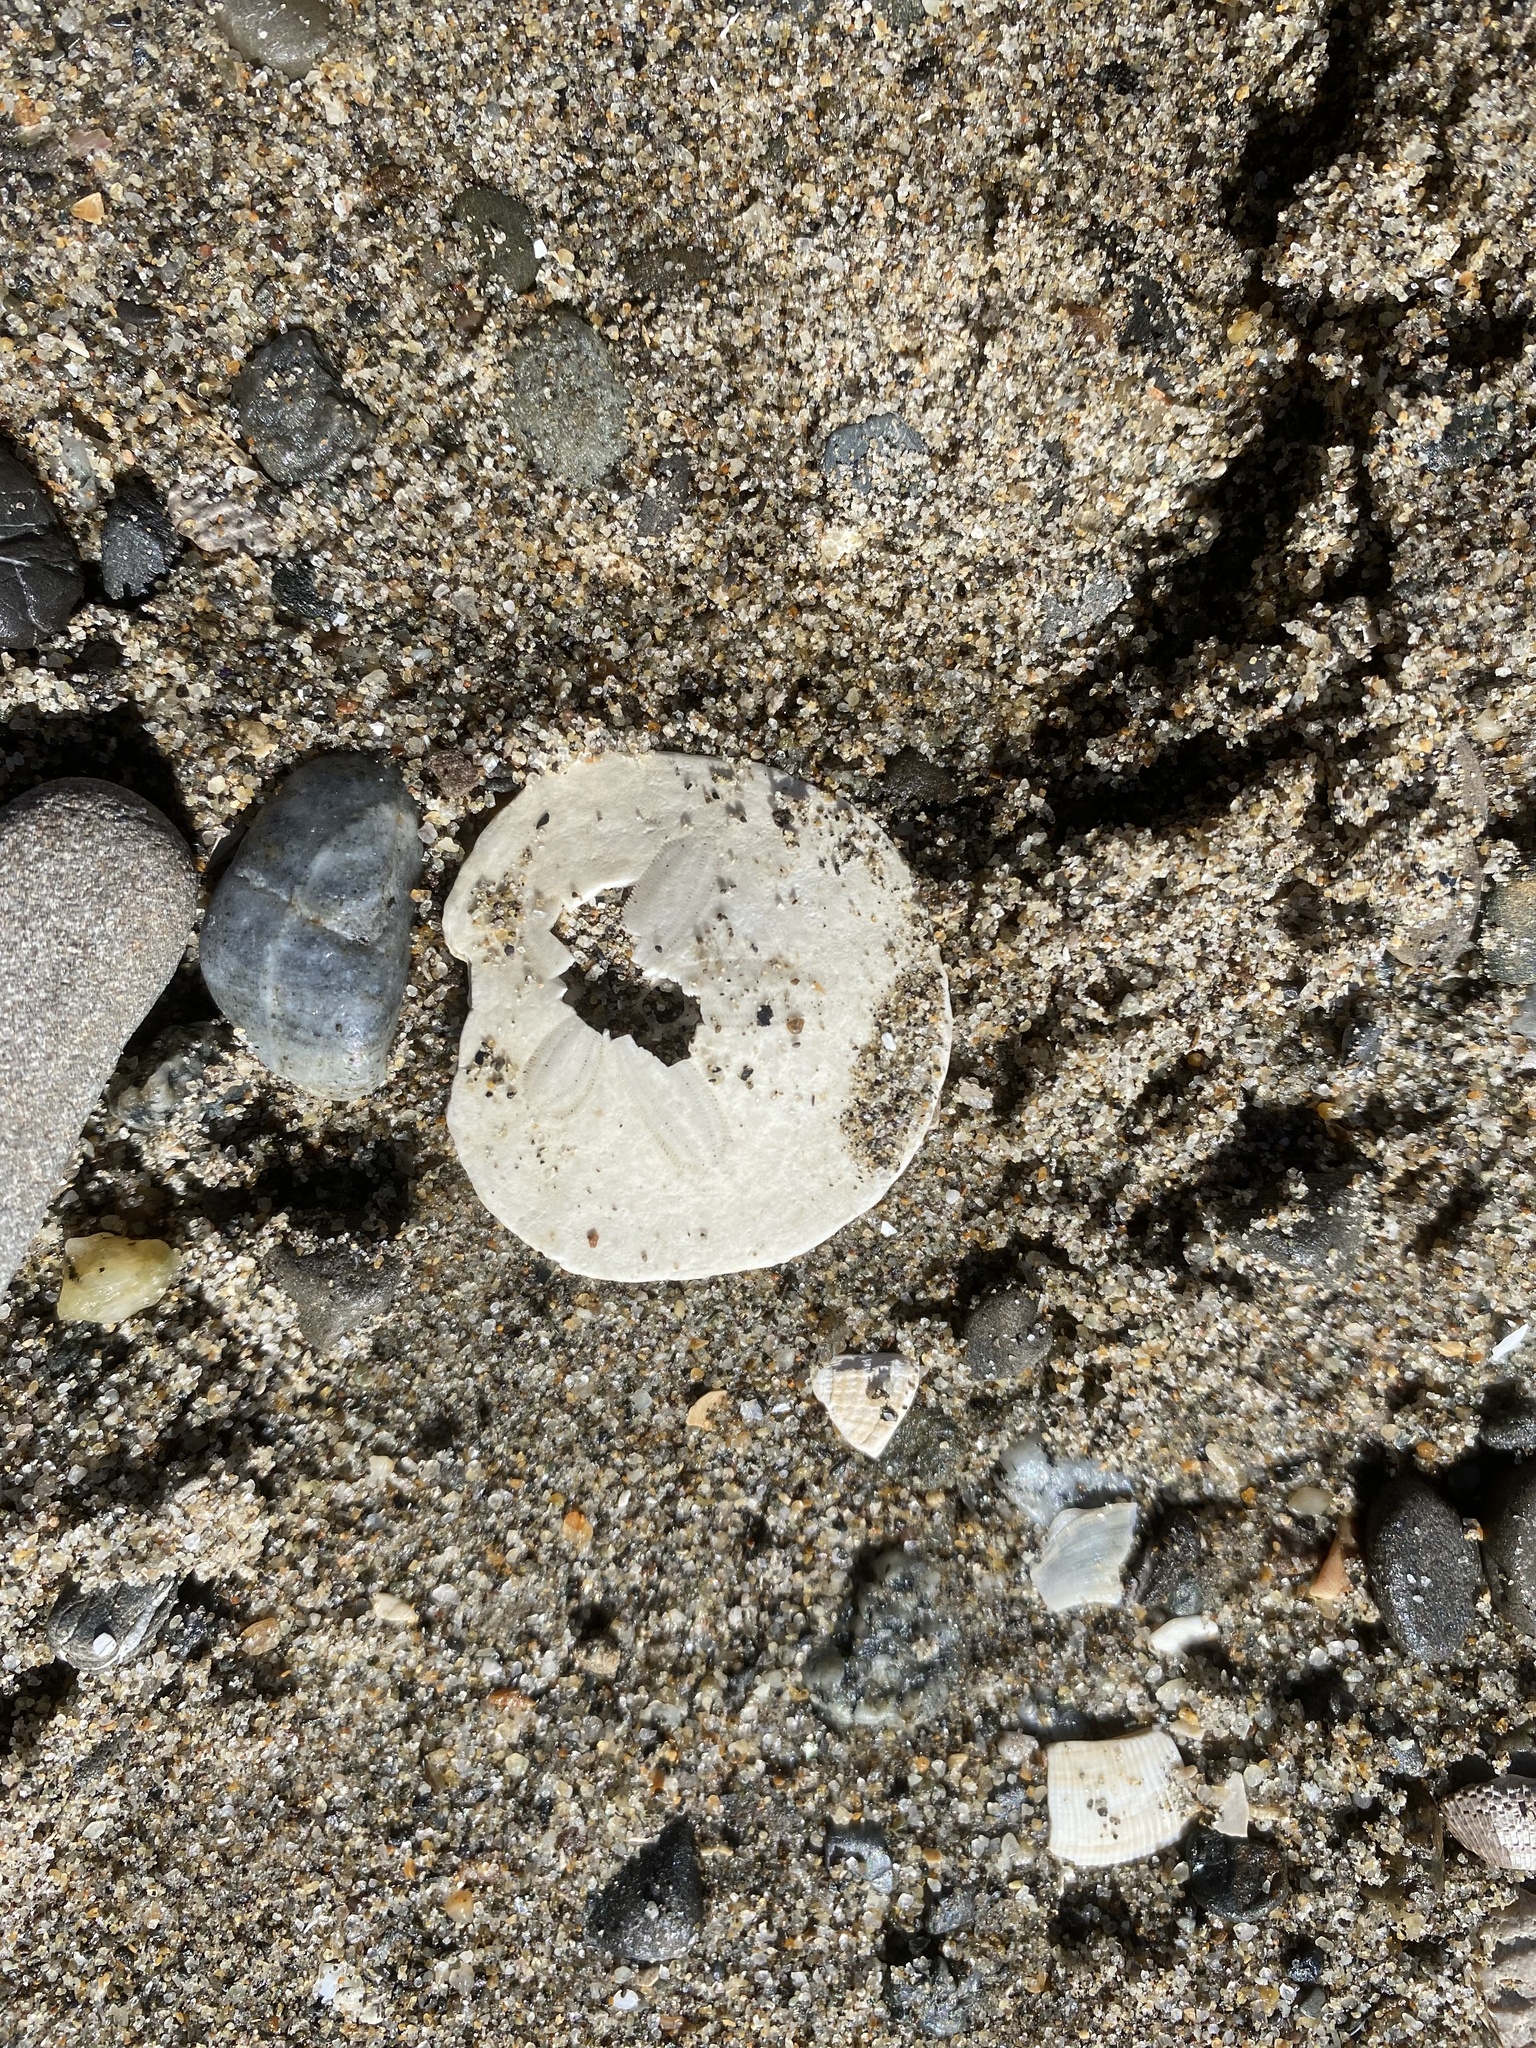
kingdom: Animalia
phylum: Echinodermata
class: Echinoidea
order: Echinolampadacea
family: Dendrasteridae
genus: Dendraster
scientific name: Dendraster excentricus
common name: Eccentric sand dollar sea urchin
